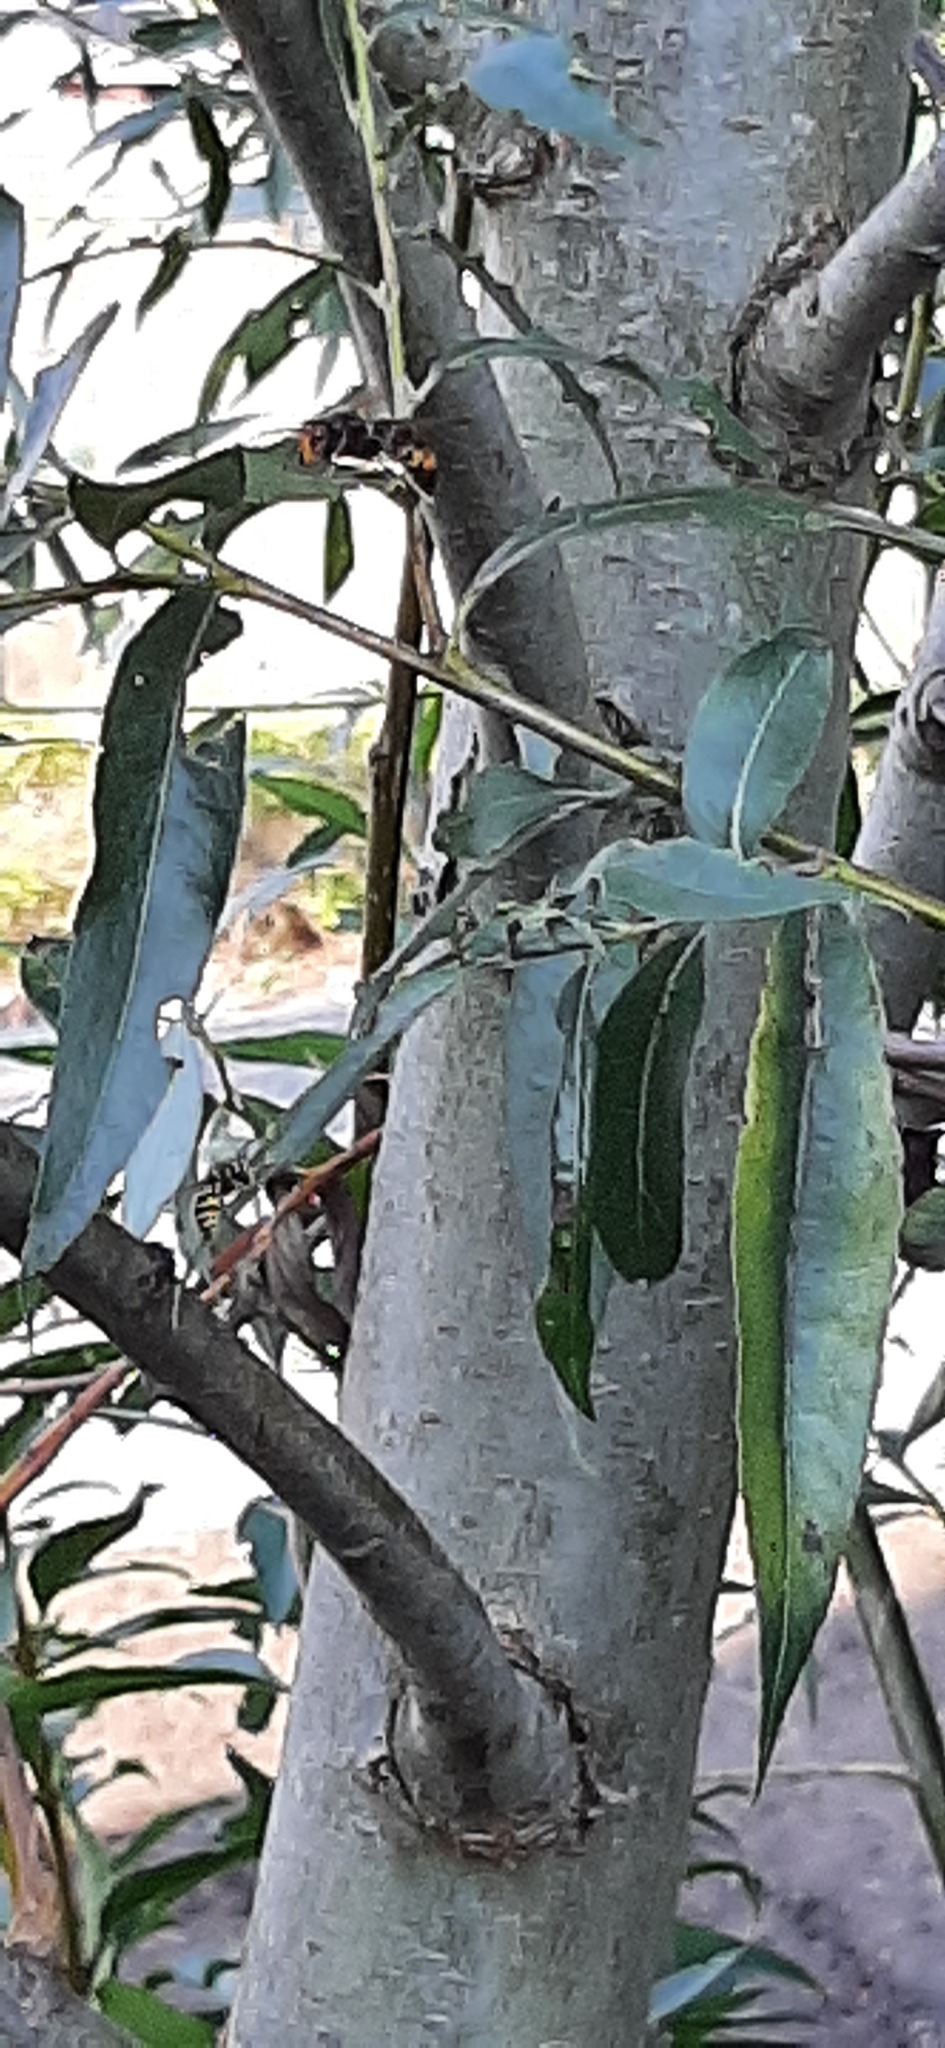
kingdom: Animalia
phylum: Arthropoda
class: Insecta
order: Hymenoptera
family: Vespidae
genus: Vespa
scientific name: Vespa velutina
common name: Asian hornet
